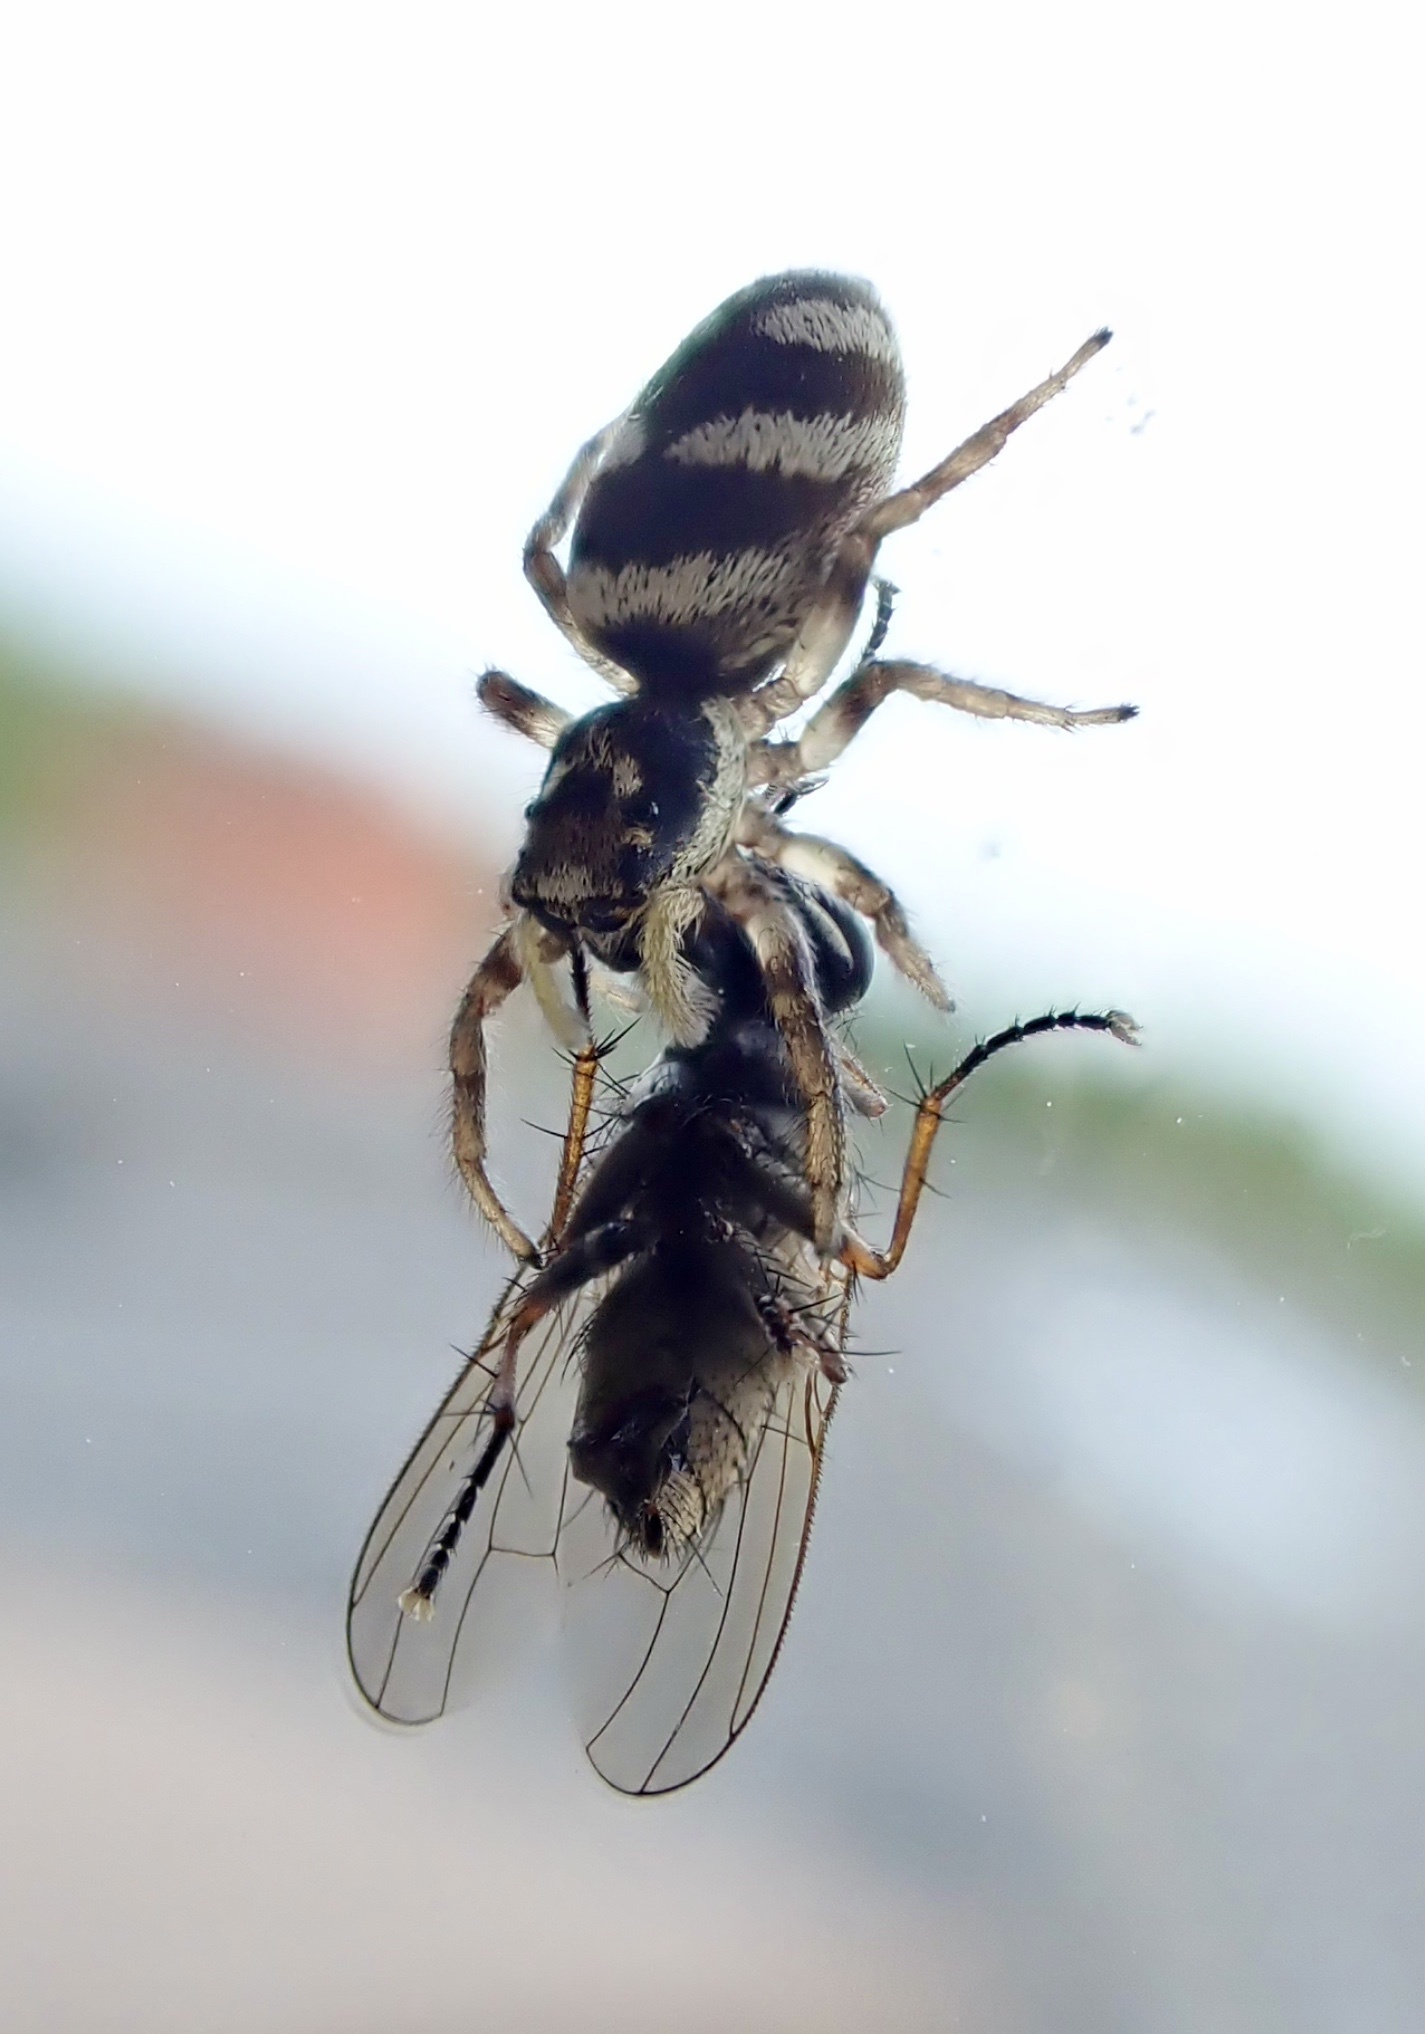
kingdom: Animalia
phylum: Arthropoda
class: Arachnida
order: Araneae
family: Salticidae
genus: Salticus
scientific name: Salticus scenicus
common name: Zebra jumper
